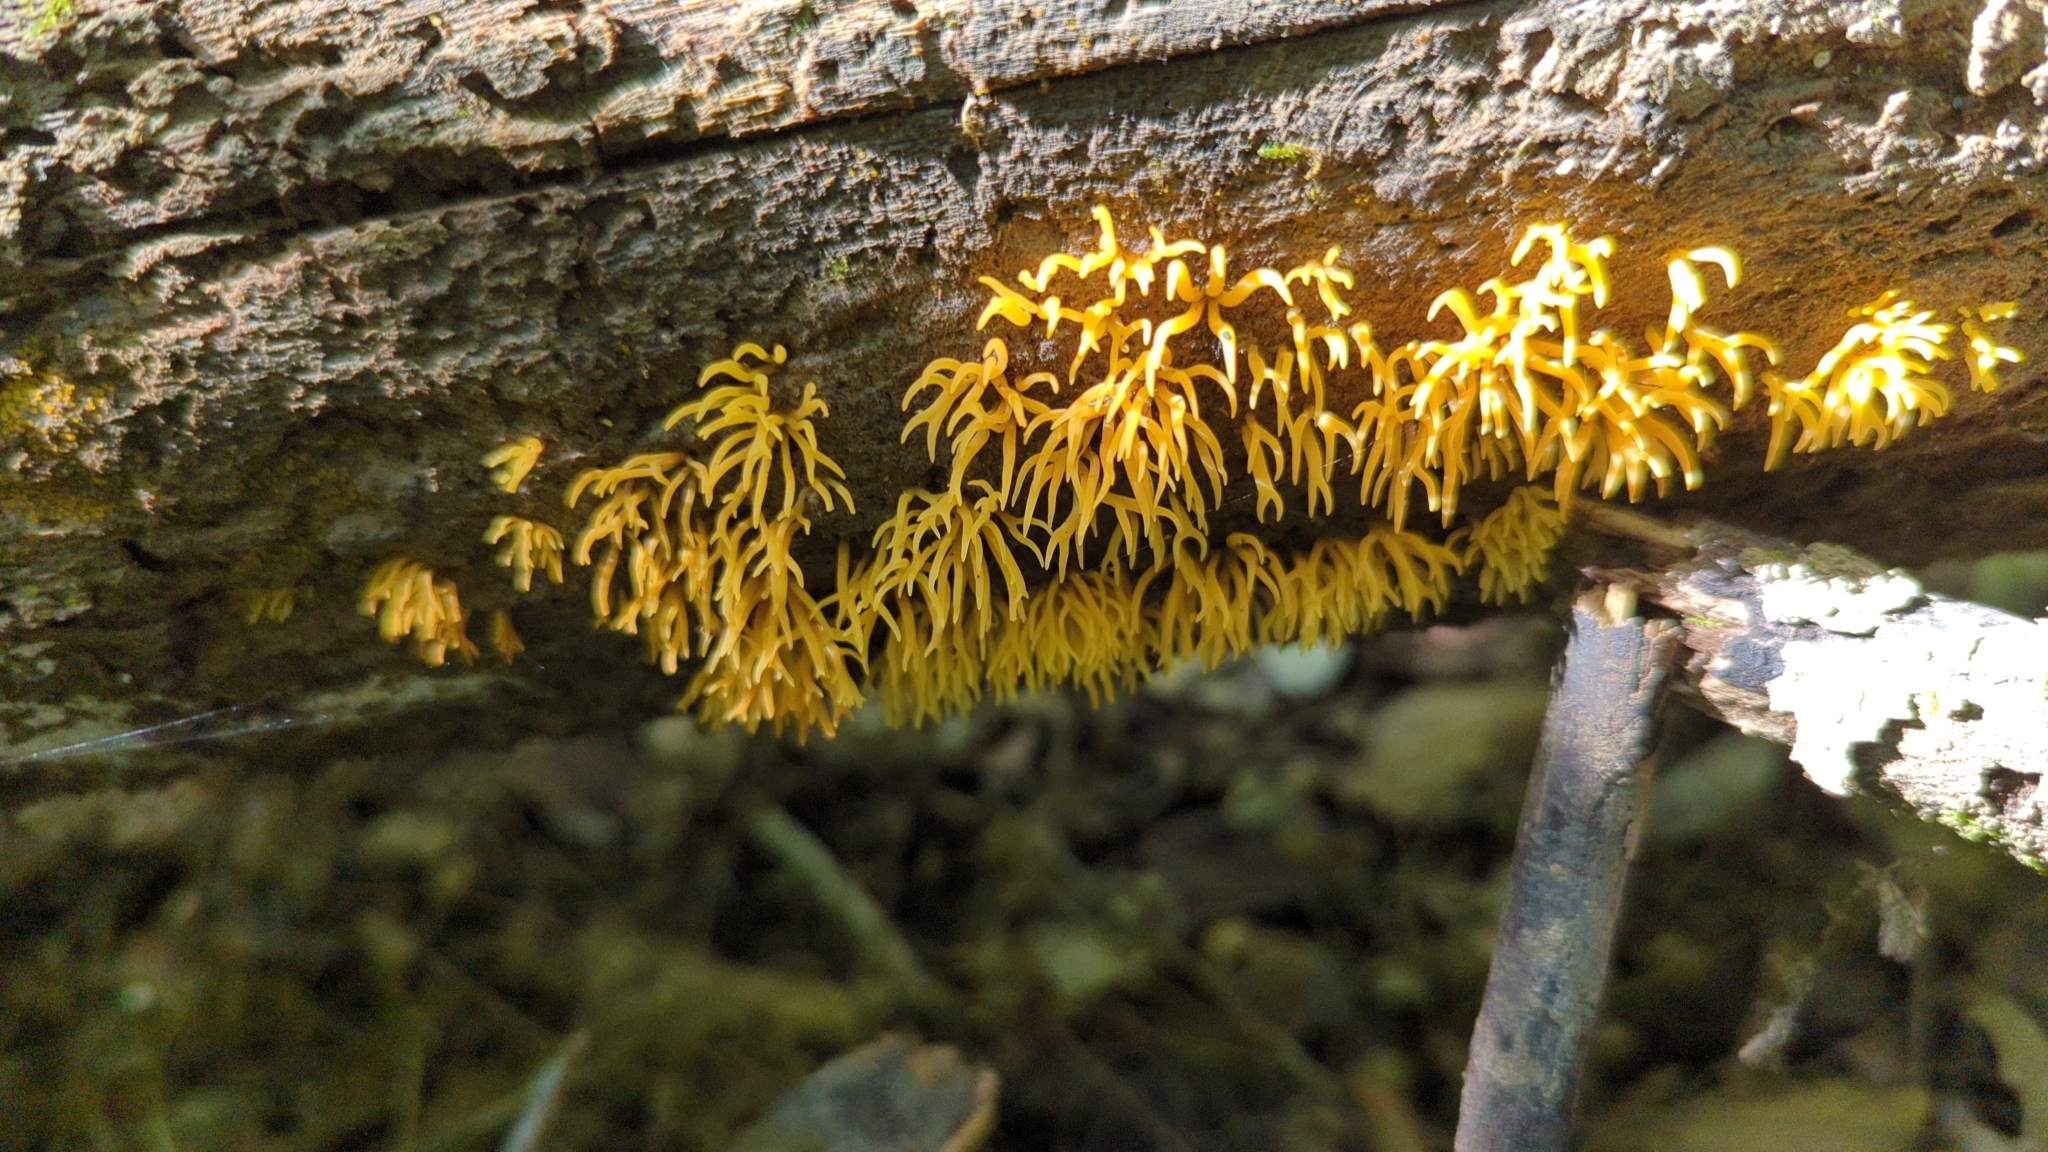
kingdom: Fungi
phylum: Basidiomycota
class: Dacrymycetes
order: Dacrymycetales
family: Dacrymycetaceae
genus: Calocera
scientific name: Calocera cornea
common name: Small stagshorn
